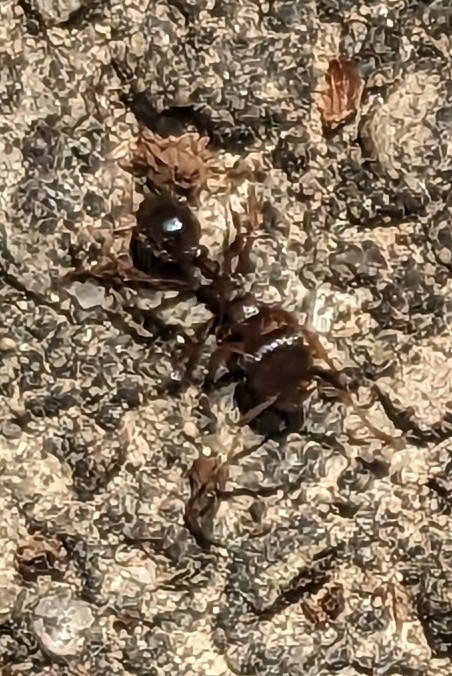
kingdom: Animalia
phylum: Arthropoda
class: Insecta
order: Hymenoptera
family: Formicidae
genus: Tetramorium
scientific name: Tetramorium immigrans
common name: Pavement ant
